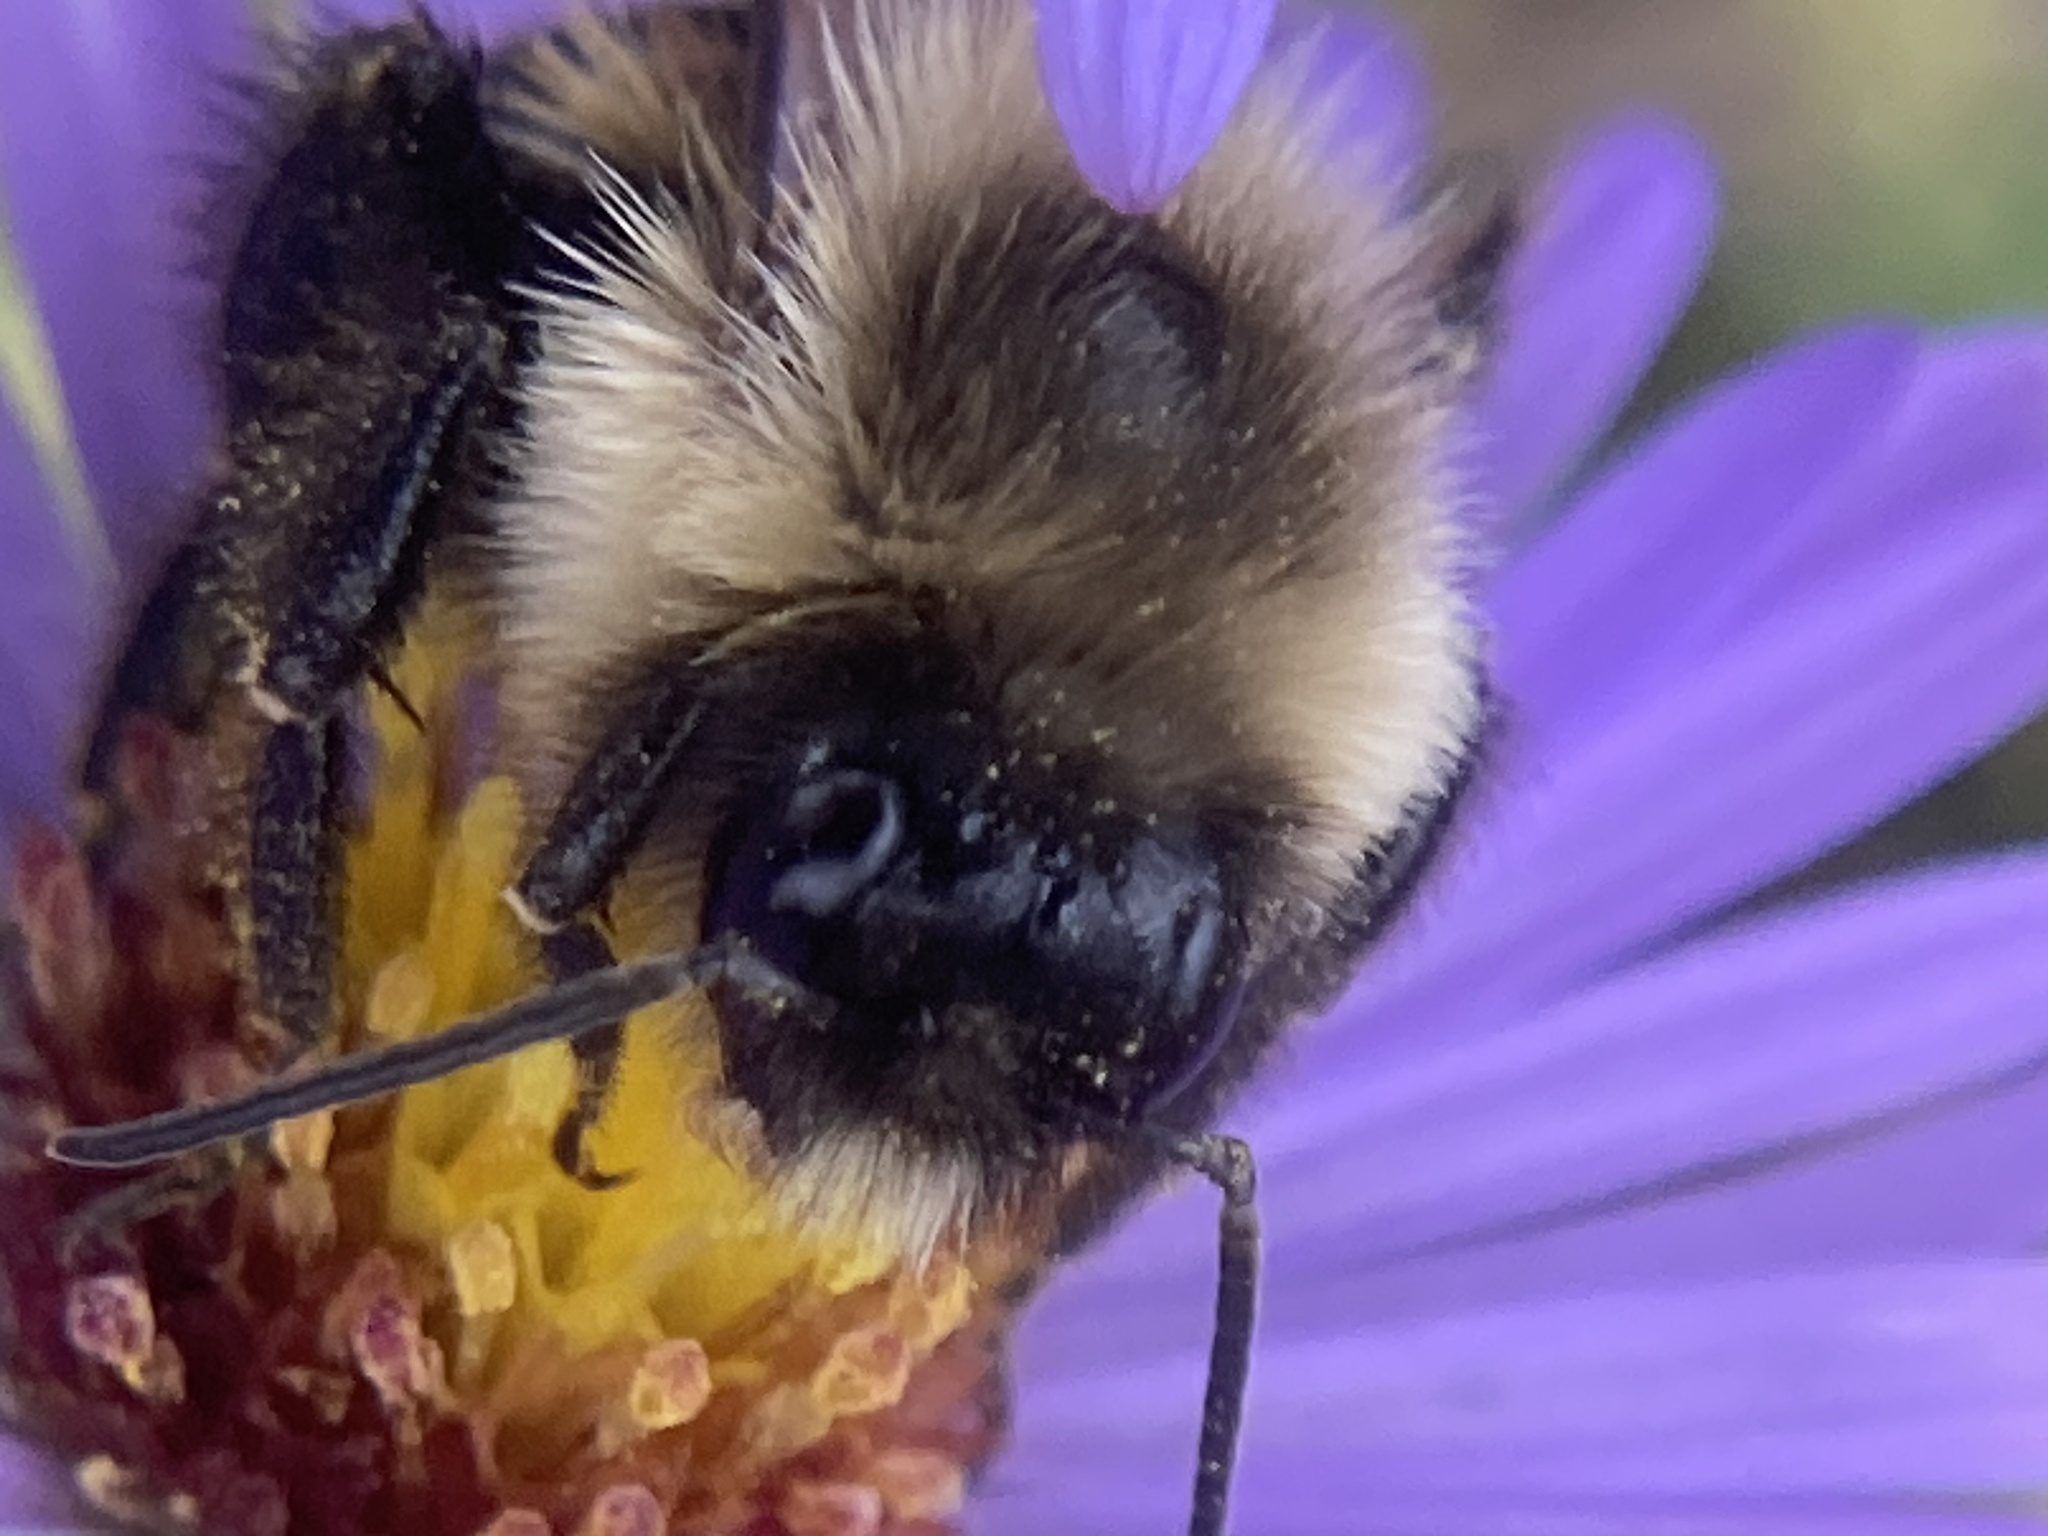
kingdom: Animalia
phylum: Arthropoda
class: Insecta
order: Hymenoptera
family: Apidae
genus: Bombus
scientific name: Bombus impatiens
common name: Common eastern bumble bee
